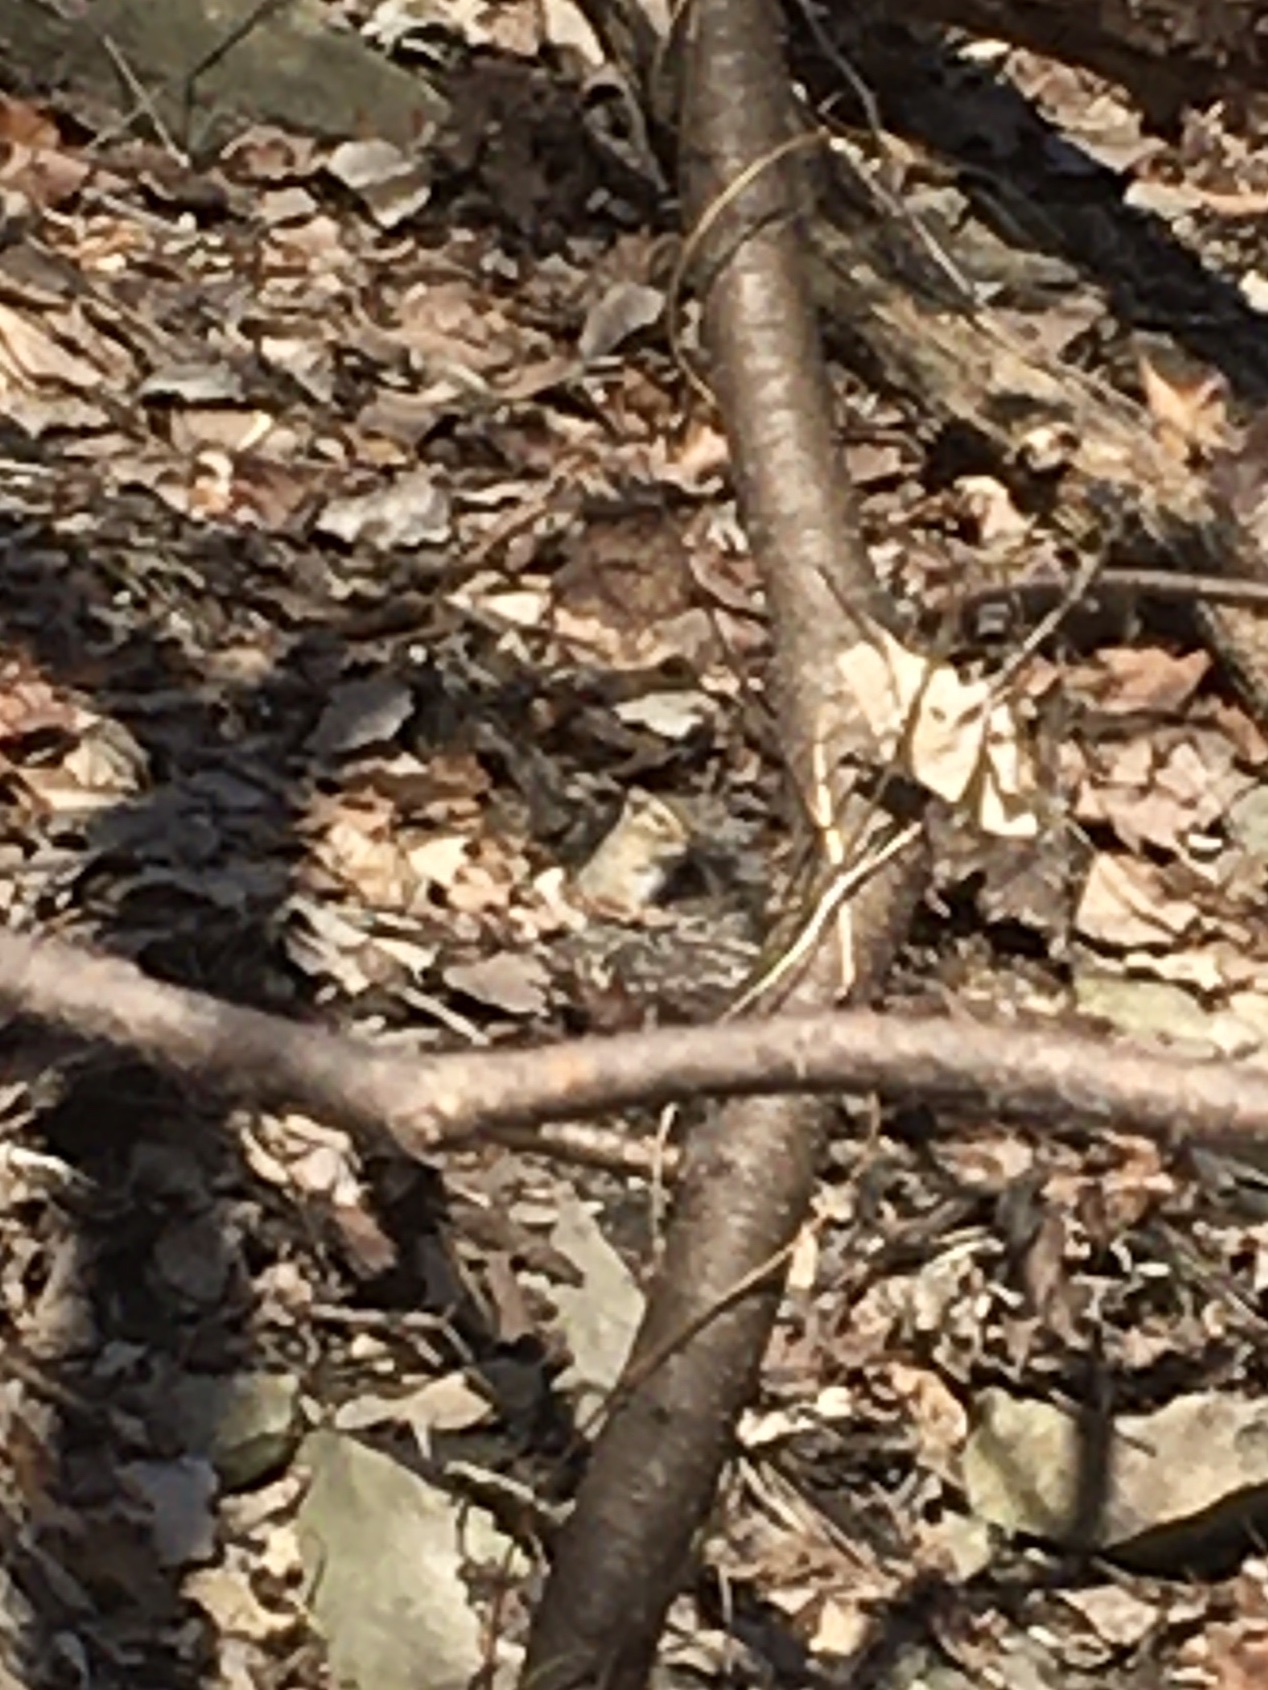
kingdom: Animalia
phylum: Chordata
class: Mammalia
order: Rodentia
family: Sciuridae
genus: Tamias
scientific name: Tamias striatus
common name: Eastern chipmunk
